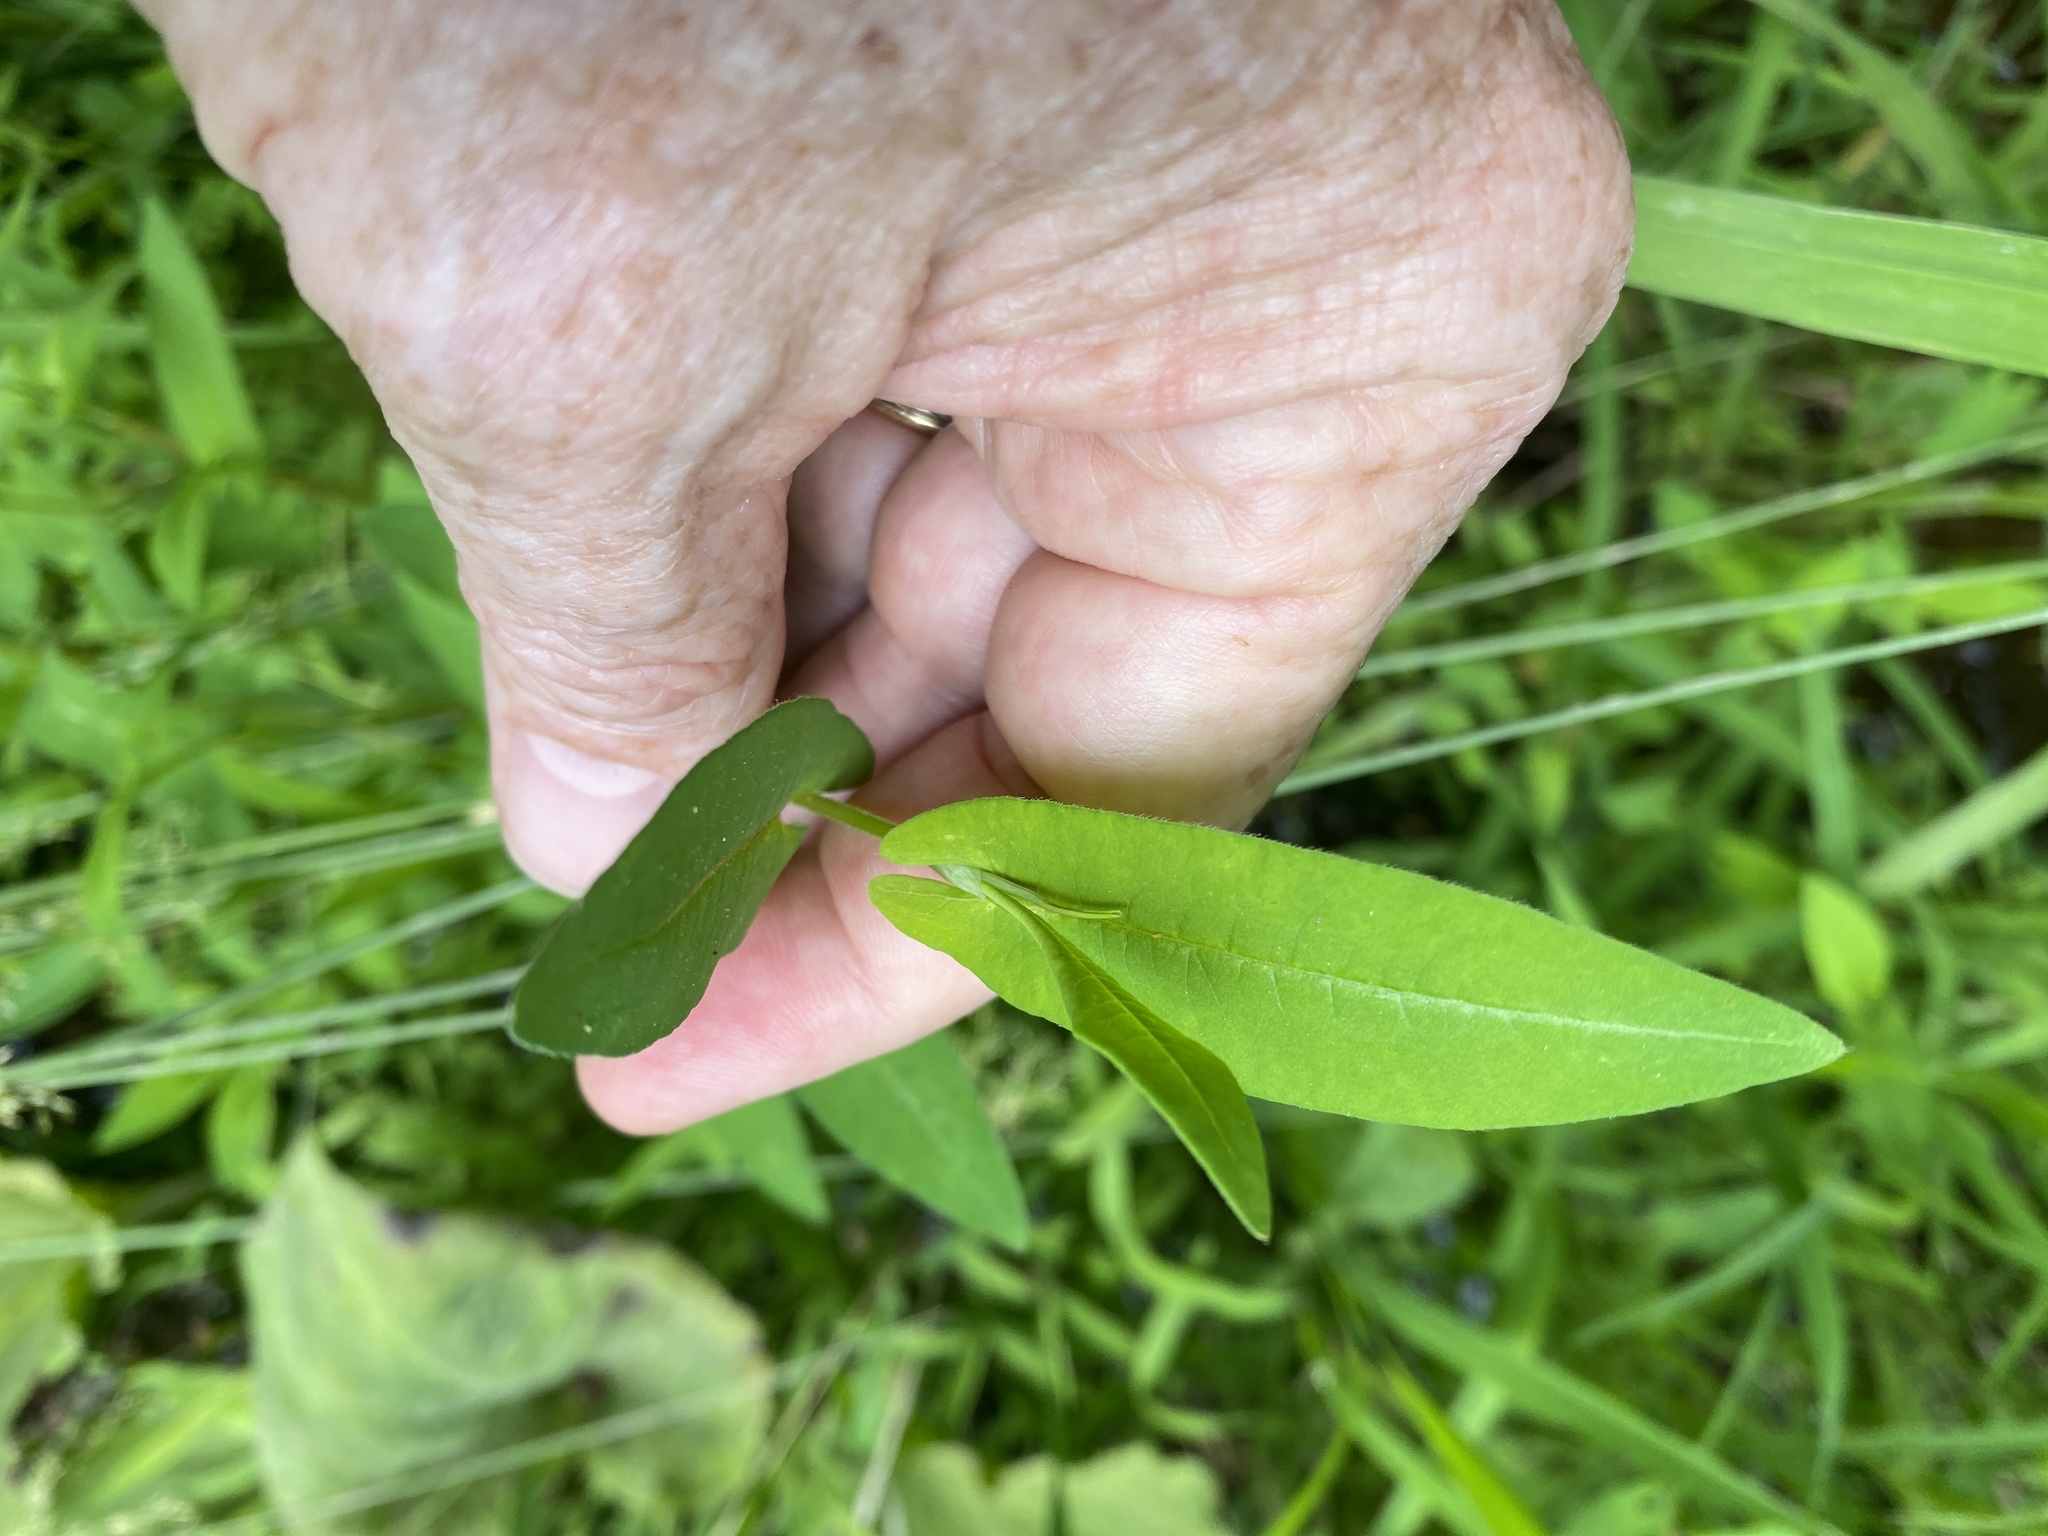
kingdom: Plantae
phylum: Tracheophyta
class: Magnoliopsida
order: Caryophyllales
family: Polygonaceae
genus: Persicaria
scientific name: Persicaria sagittata
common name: American tearthumb
